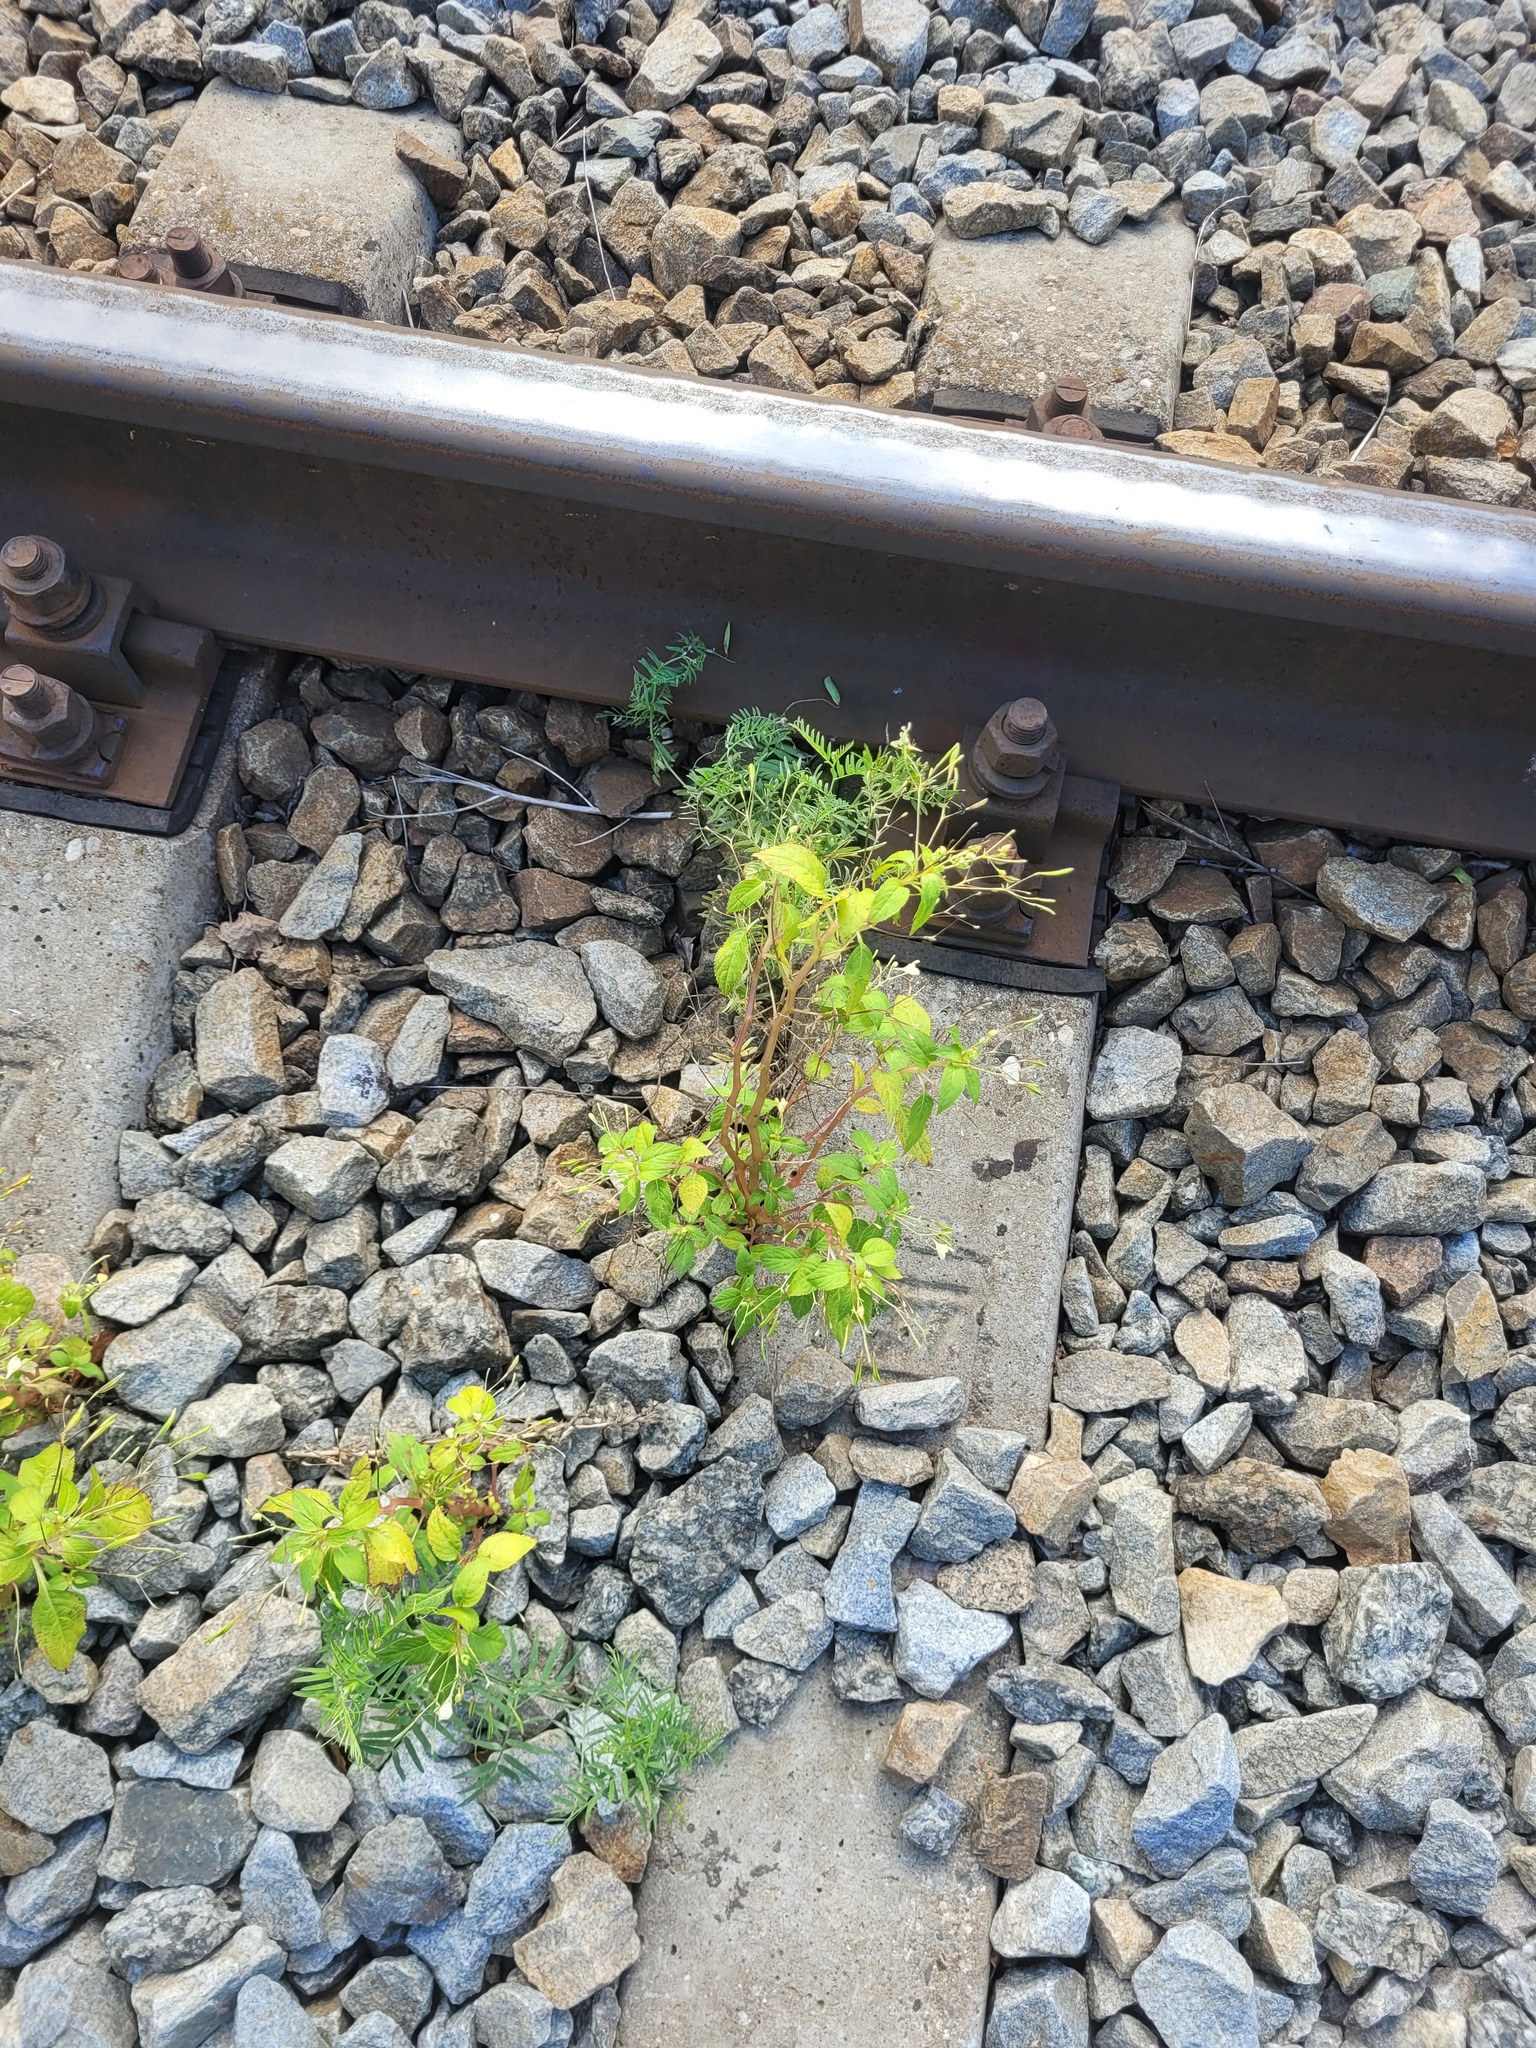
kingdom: Plantae
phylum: Tracheophyta
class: Magnoliopsida
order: Ericales
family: Balsaminaceae
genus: Impatiens
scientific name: Impatiens parviflora
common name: Small balsam
